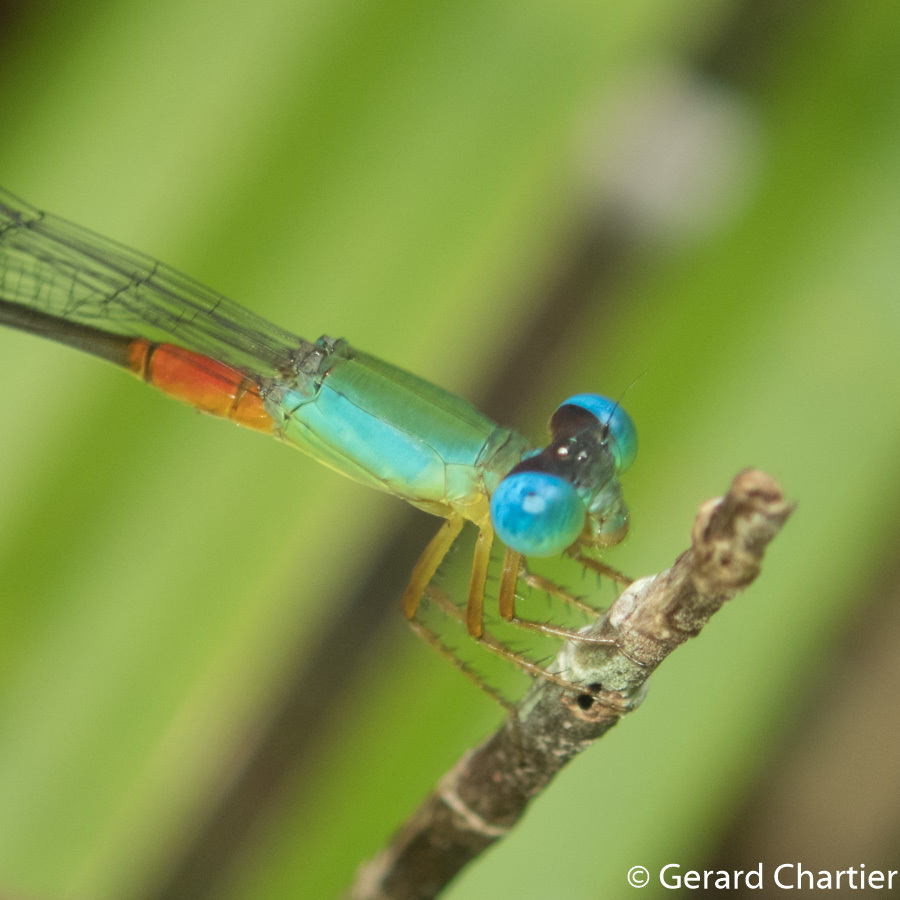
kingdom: Animalia
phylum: Arthropoda
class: Insecta
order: Odonata
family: Coenagrionidae
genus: Ceriagrion
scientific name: Ceriagrion cerinorubellum
